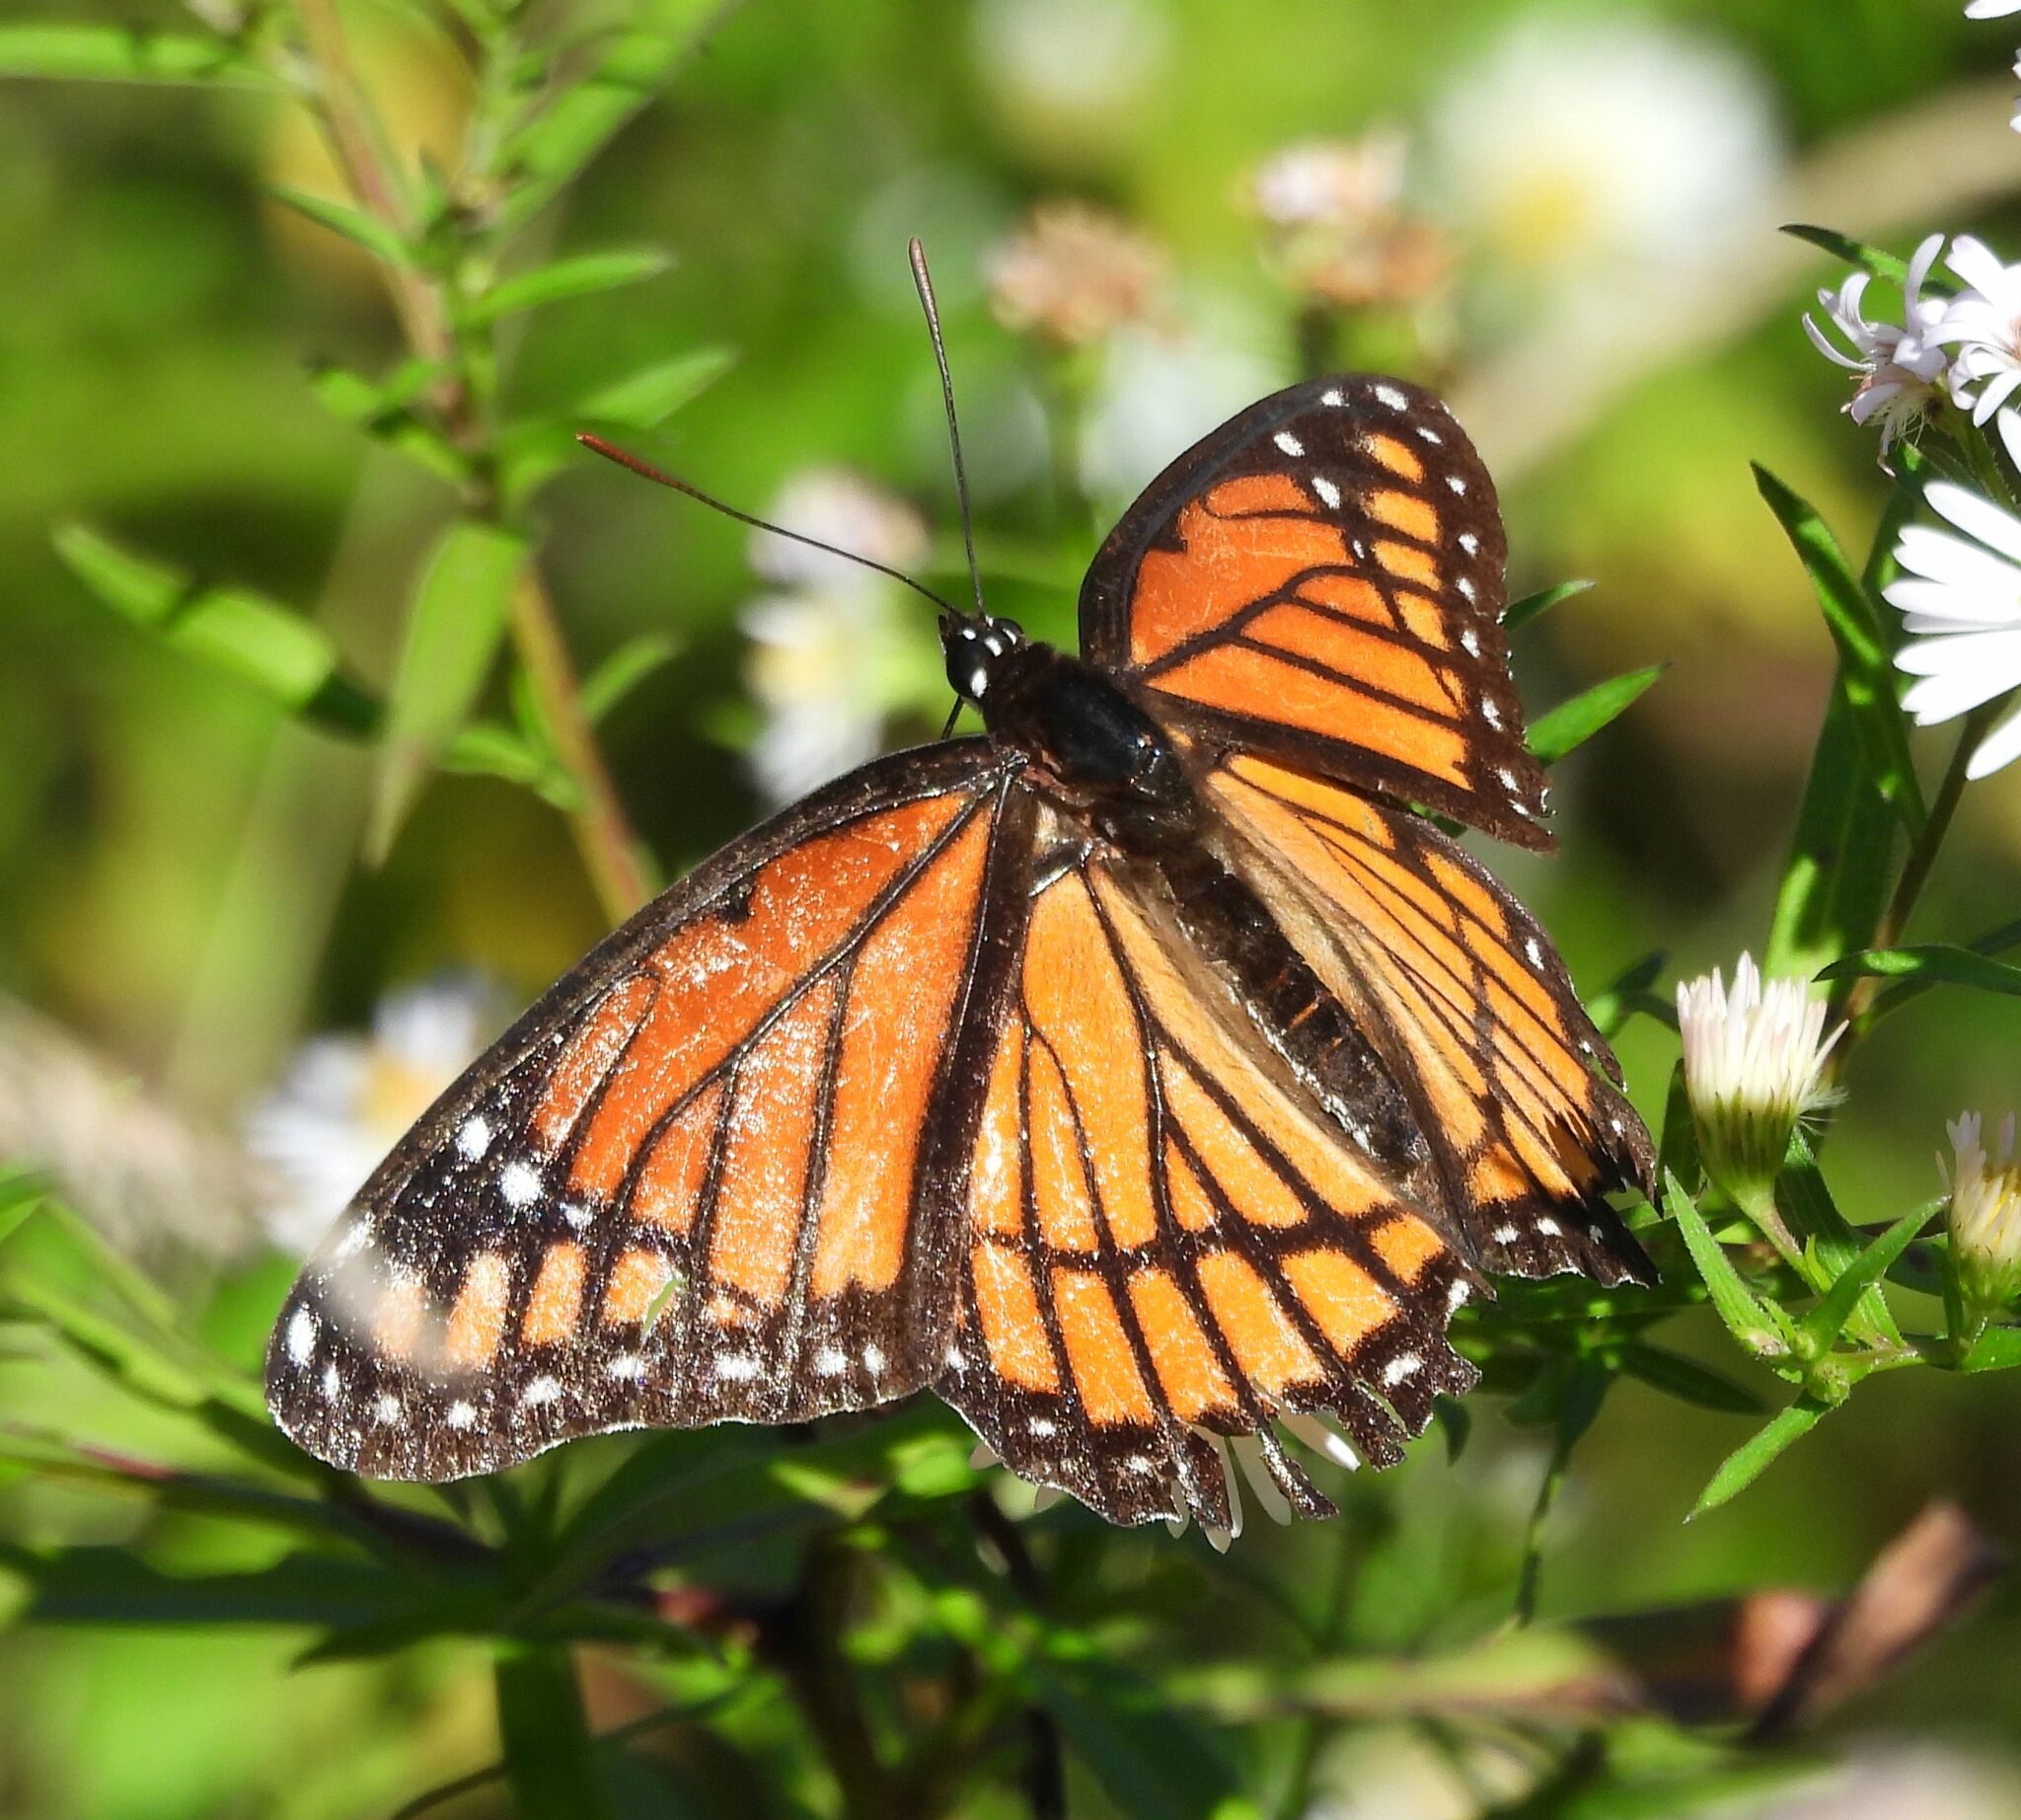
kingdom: Animalia
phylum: Arthropoda
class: Insecta
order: Lepidoptera
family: Nymphalidae
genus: Limenitis
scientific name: Limenitis archippus
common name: Viceroy
